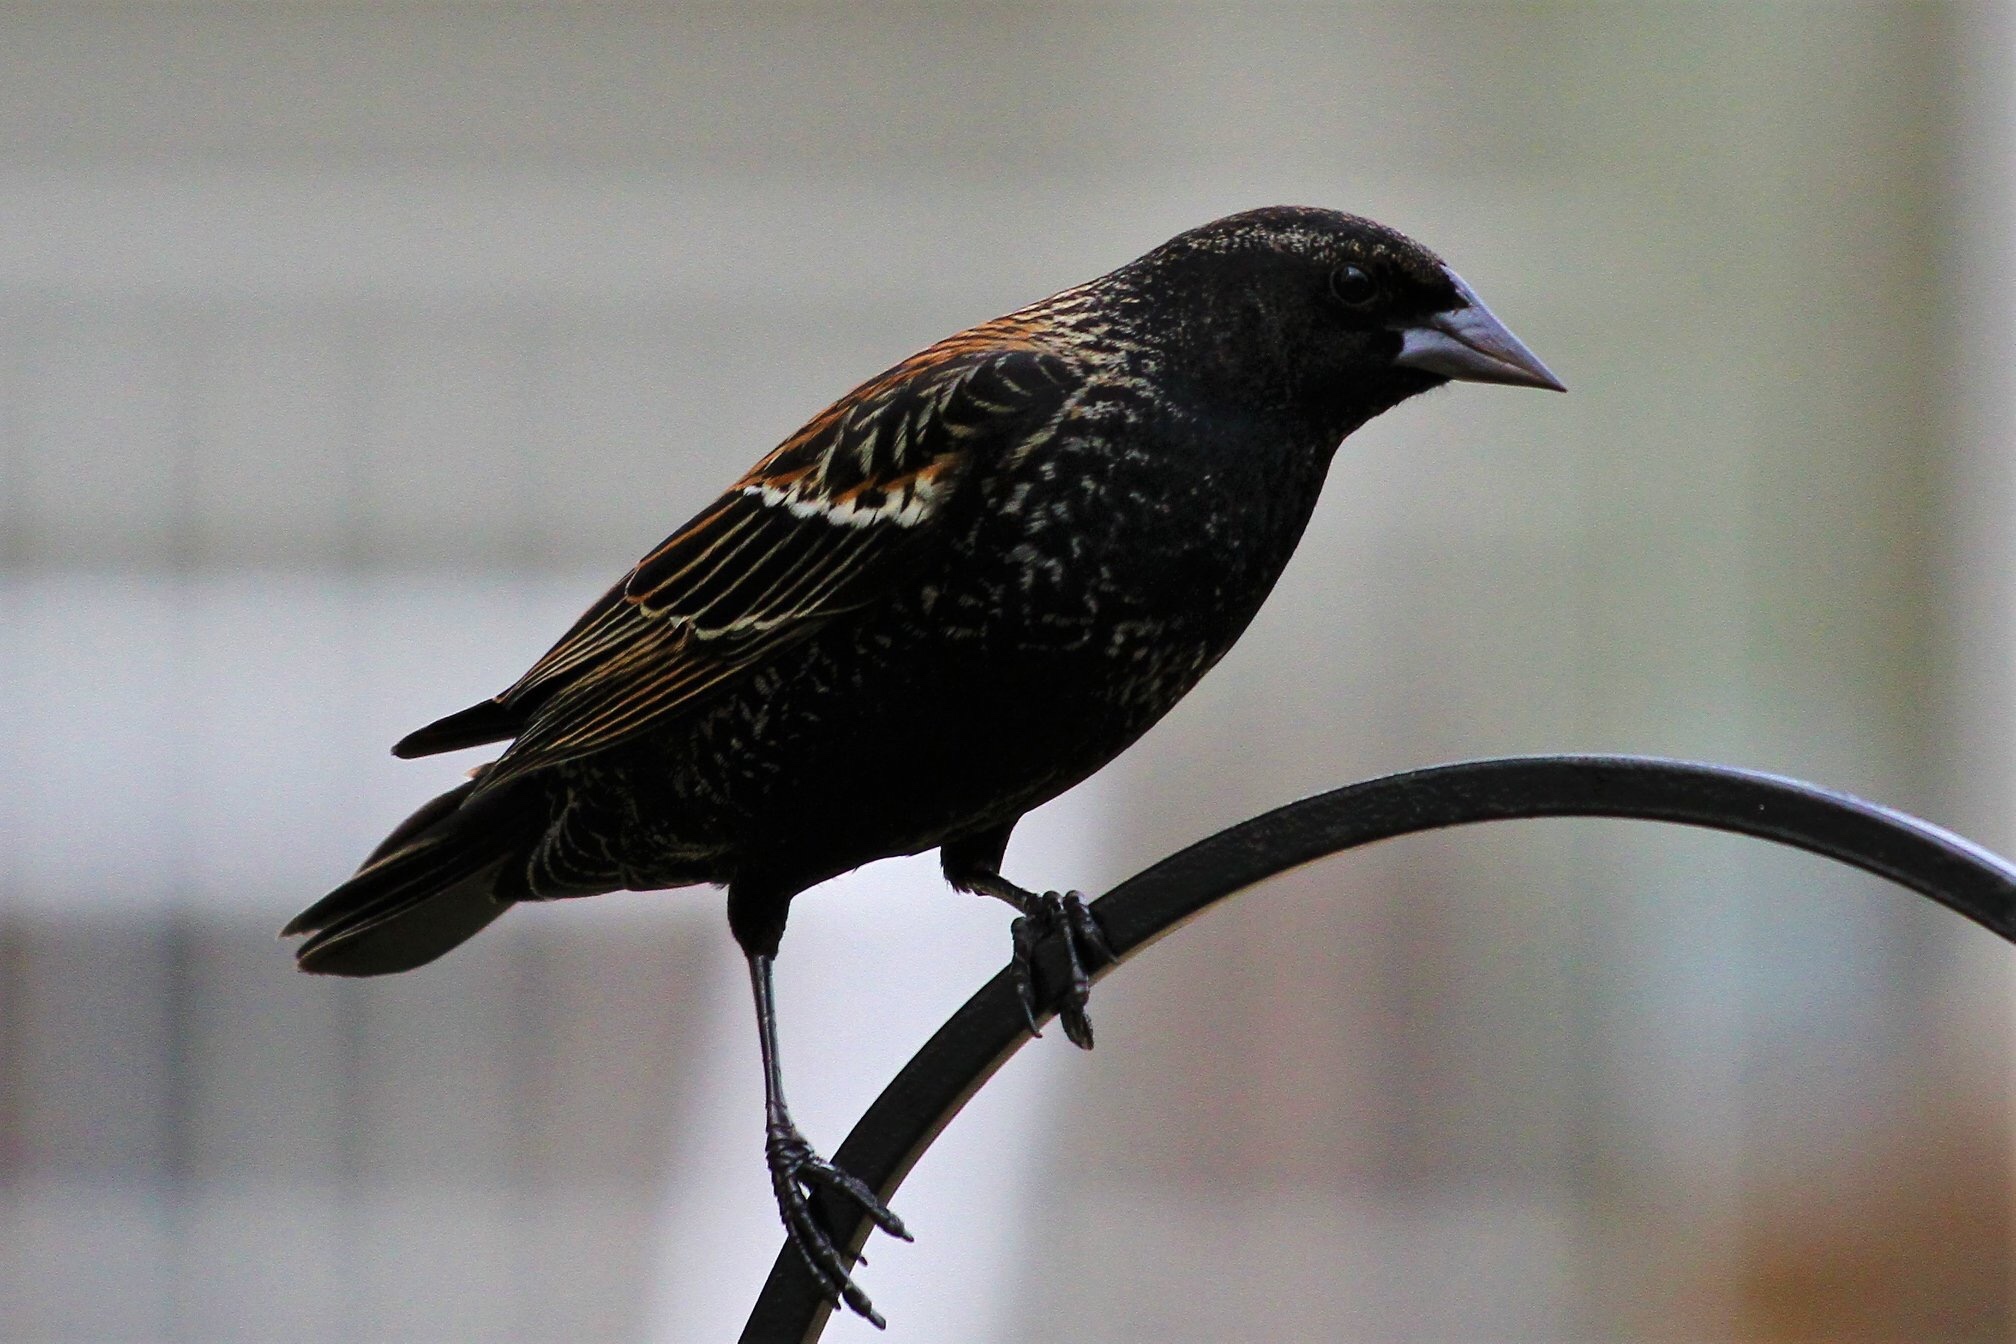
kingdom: Animalia
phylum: Chordata
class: Aves
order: Passeriformes
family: Icteridae
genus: Agelaius
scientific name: Agelaius phoeniceus
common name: Red-winged blackbird
